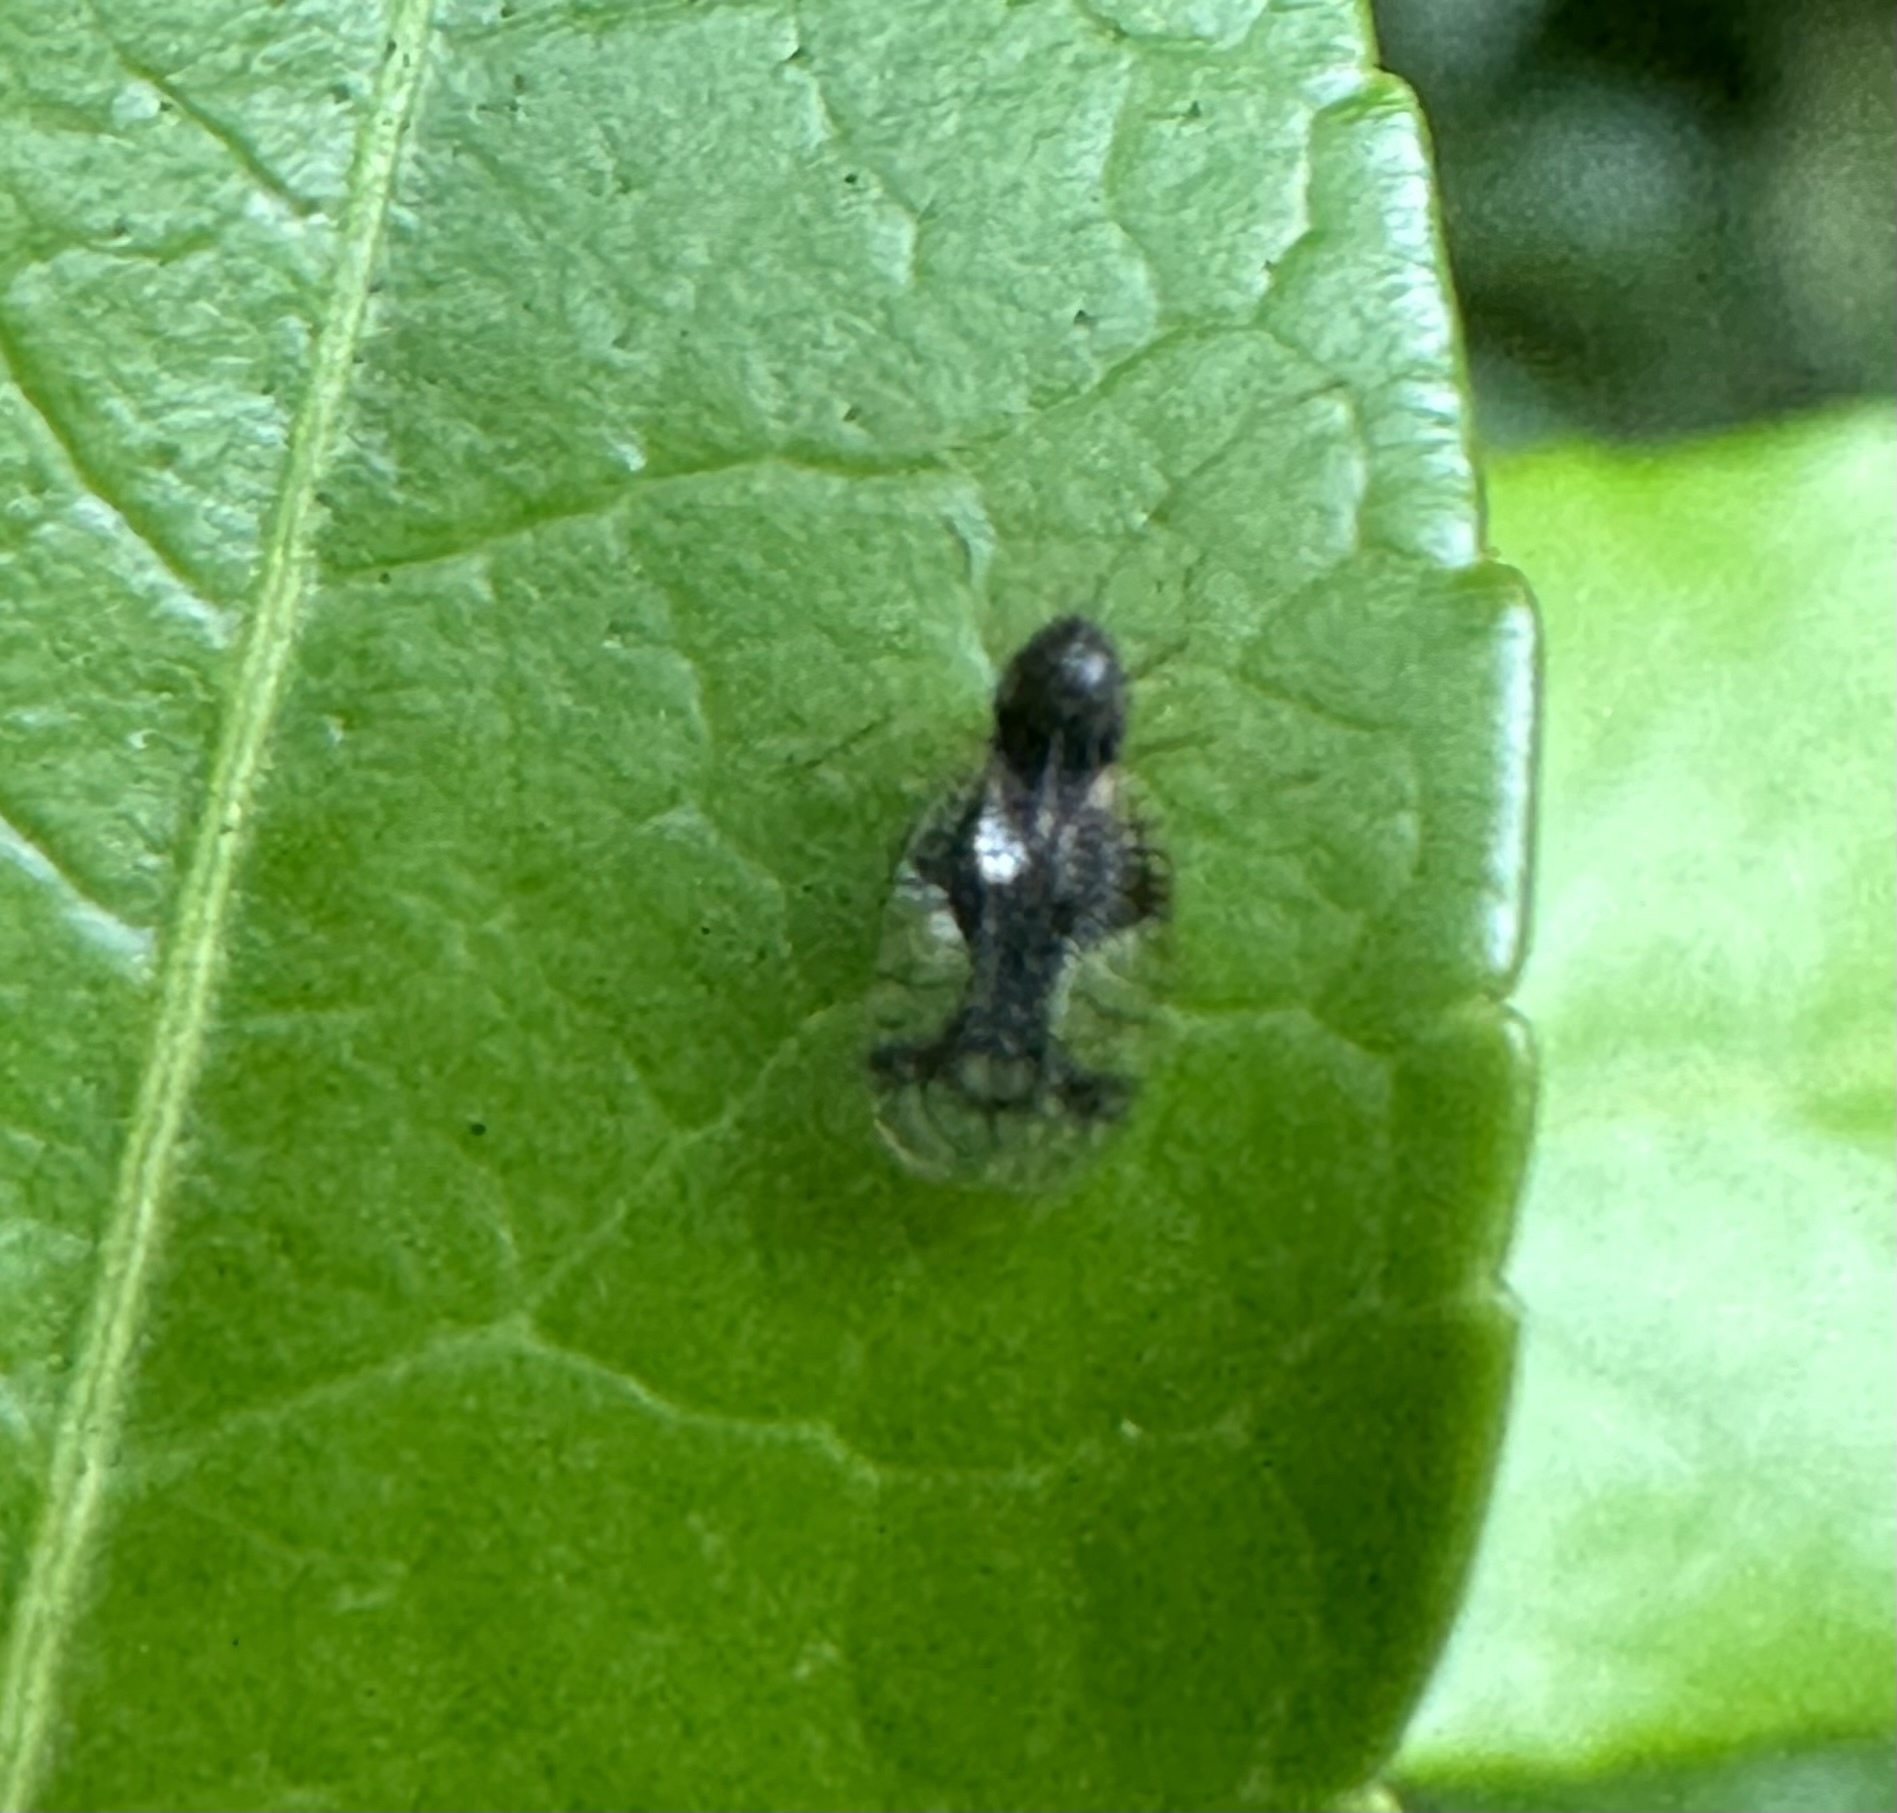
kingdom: Animalia
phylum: Arthropoda
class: Insecta
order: Hemiptera
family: Tingidae
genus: Stephanitis
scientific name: Stephanitis takeyai
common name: Andromeda lacebug
